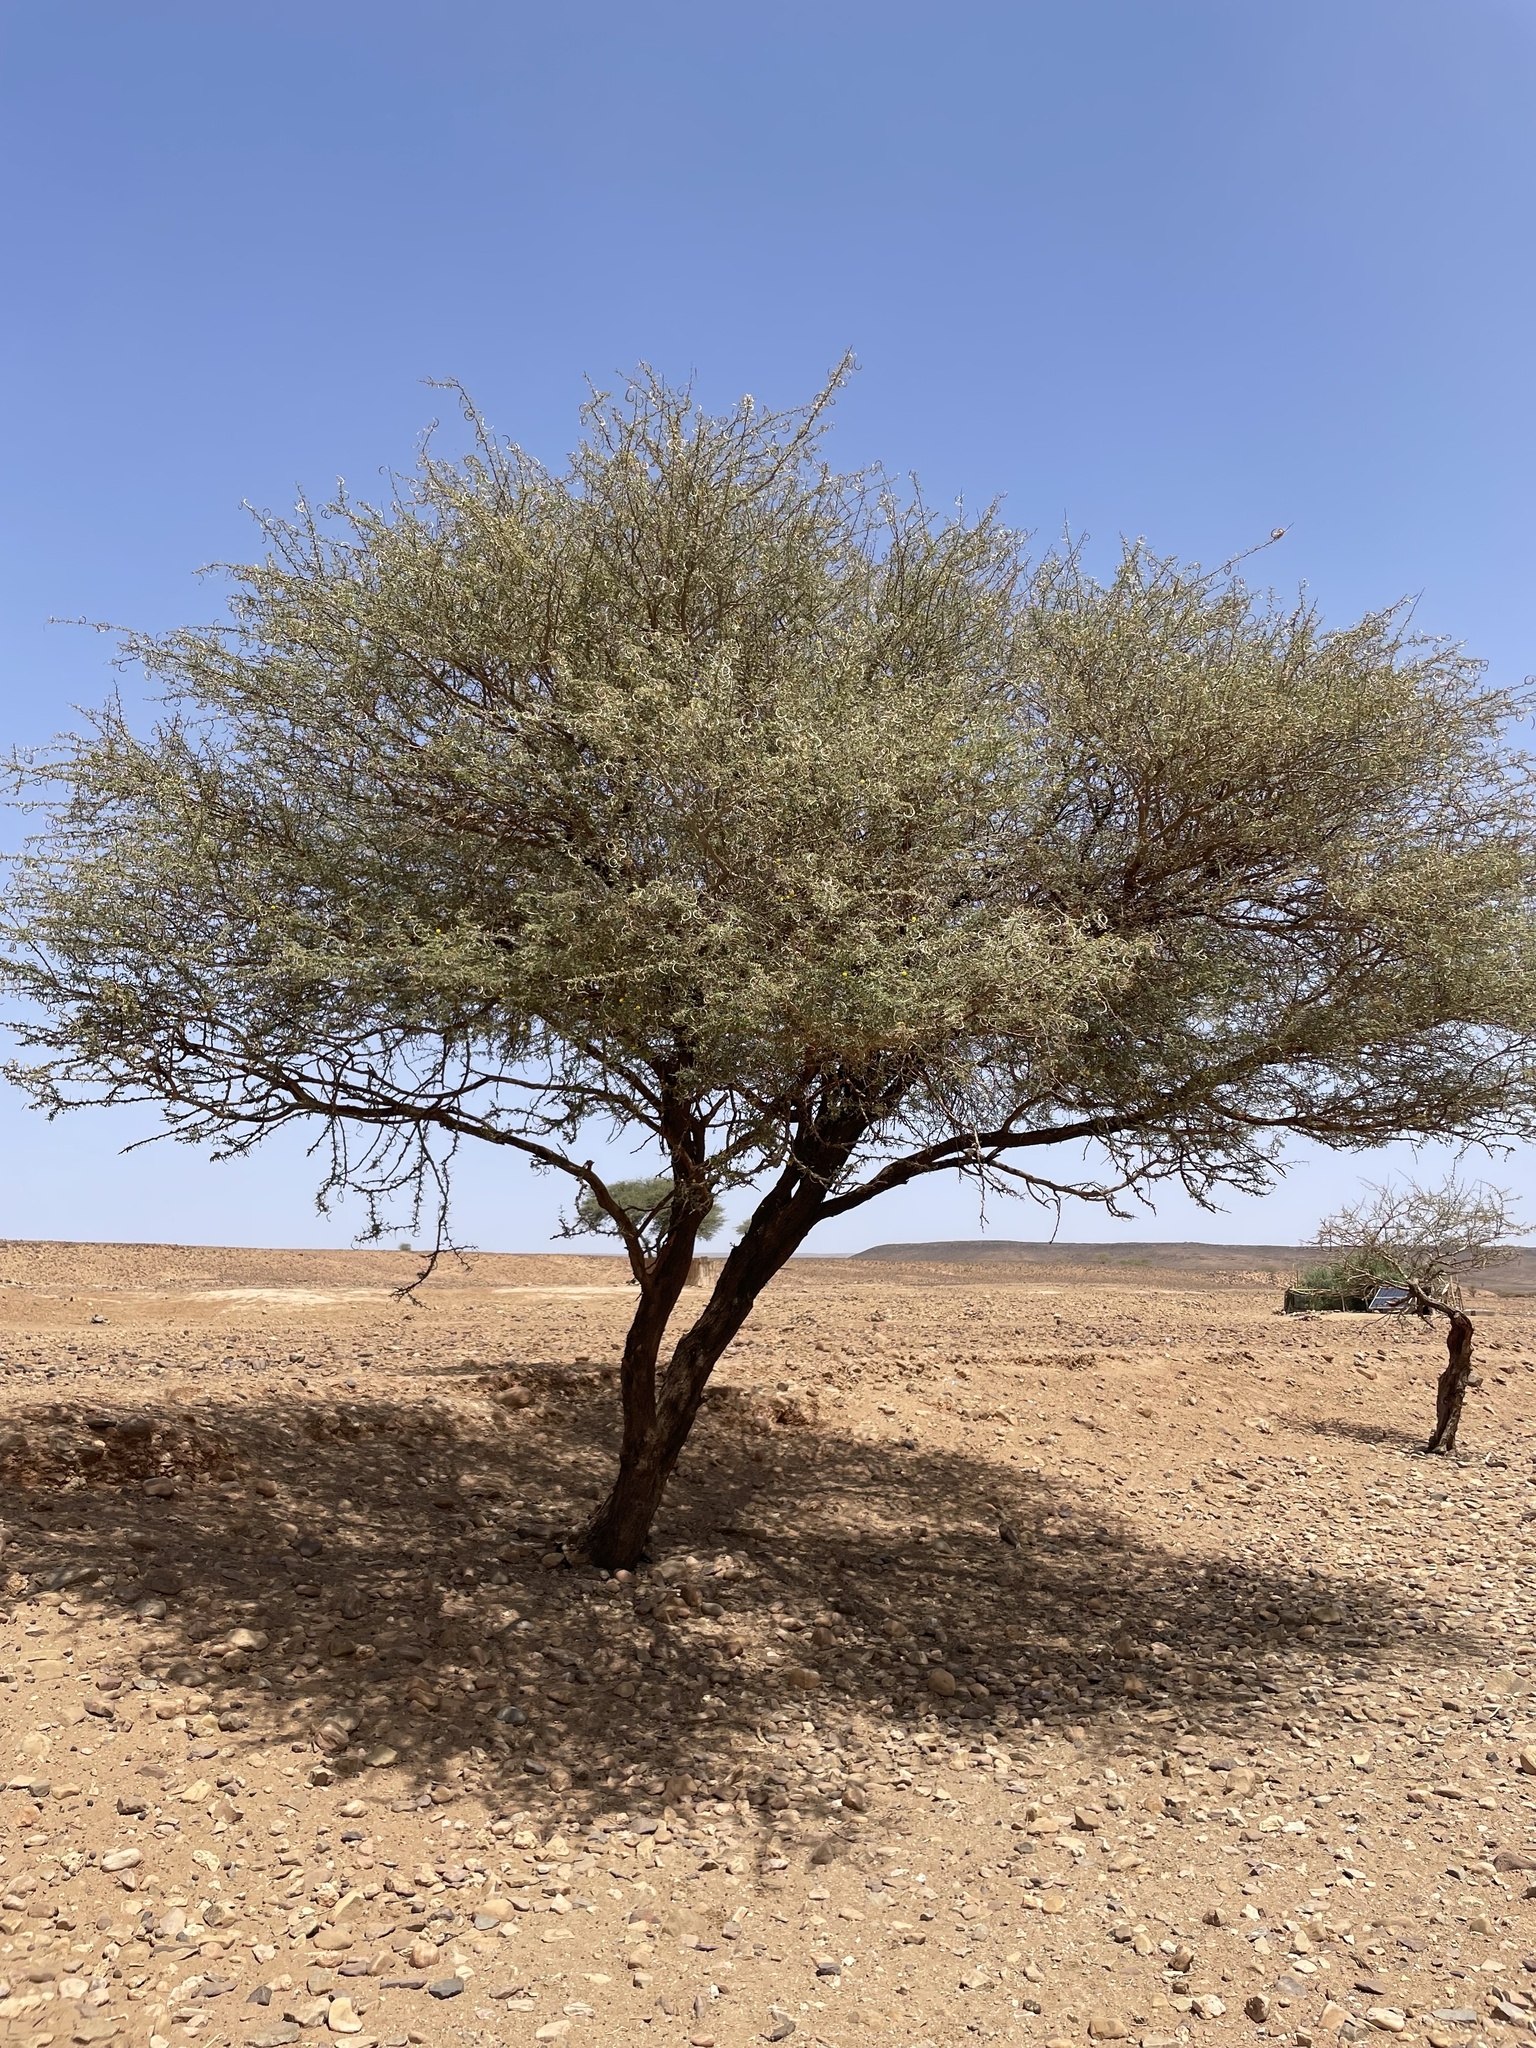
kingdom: Plantae
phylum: Tracheophyta
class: Magnoliopsida
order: Fabales
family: Fabaceae
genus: Vachellia
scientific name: Vachellia flava
